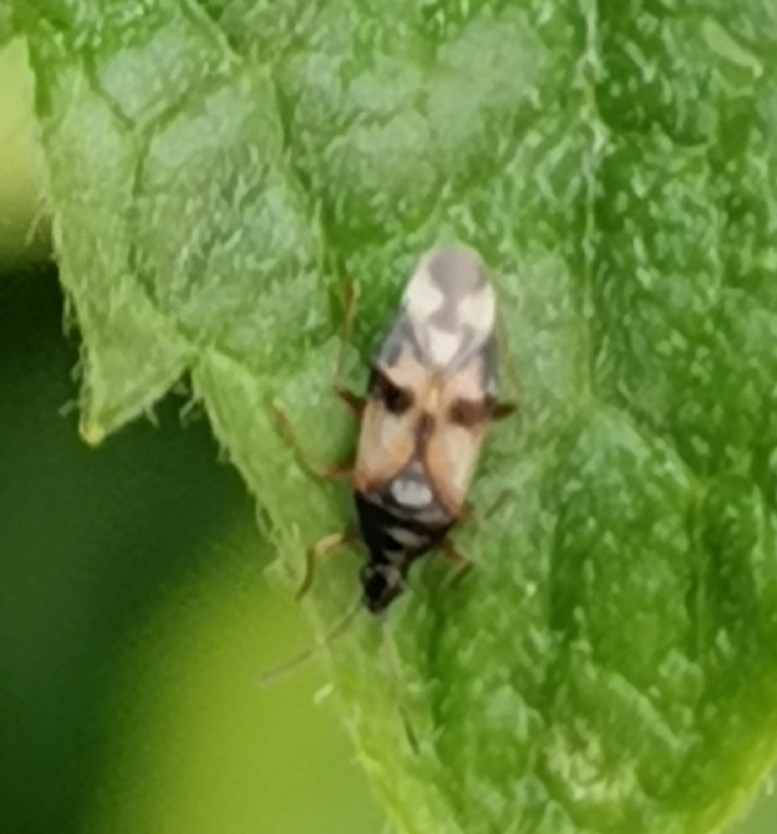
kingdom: Animalia
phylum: Arthropoda
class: Insecta
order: Hemiptera
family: Anthocoridae
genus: Anthocoris
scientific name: Anthocoris nemorum
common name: Minute pirate bug
